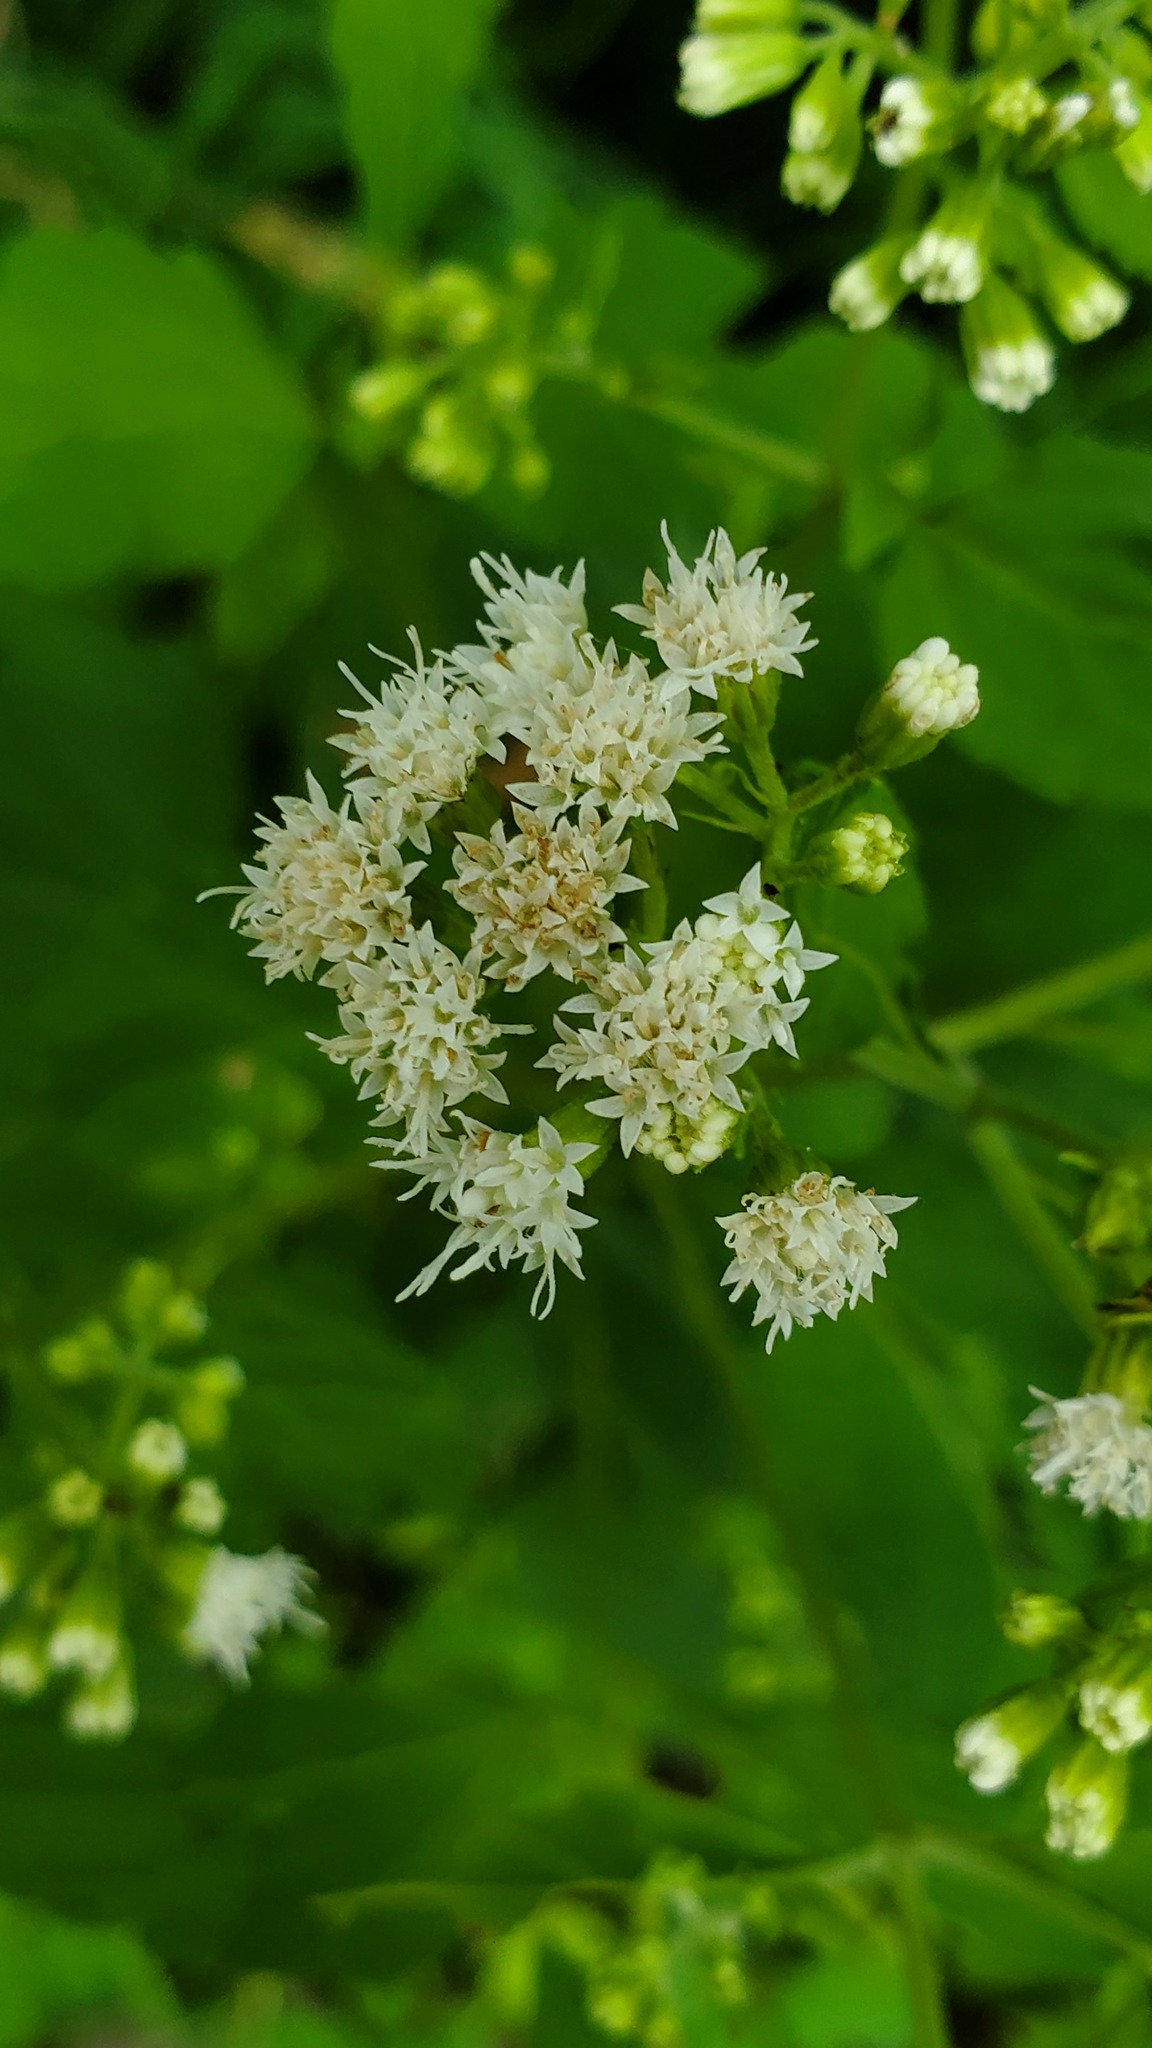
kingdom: Plantae
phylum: Tracheophyta
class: Magnoliopsida
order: Asterales
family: Asteraceae
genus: Ageratina
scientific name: Ageratina altissima
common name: White snakeroot
